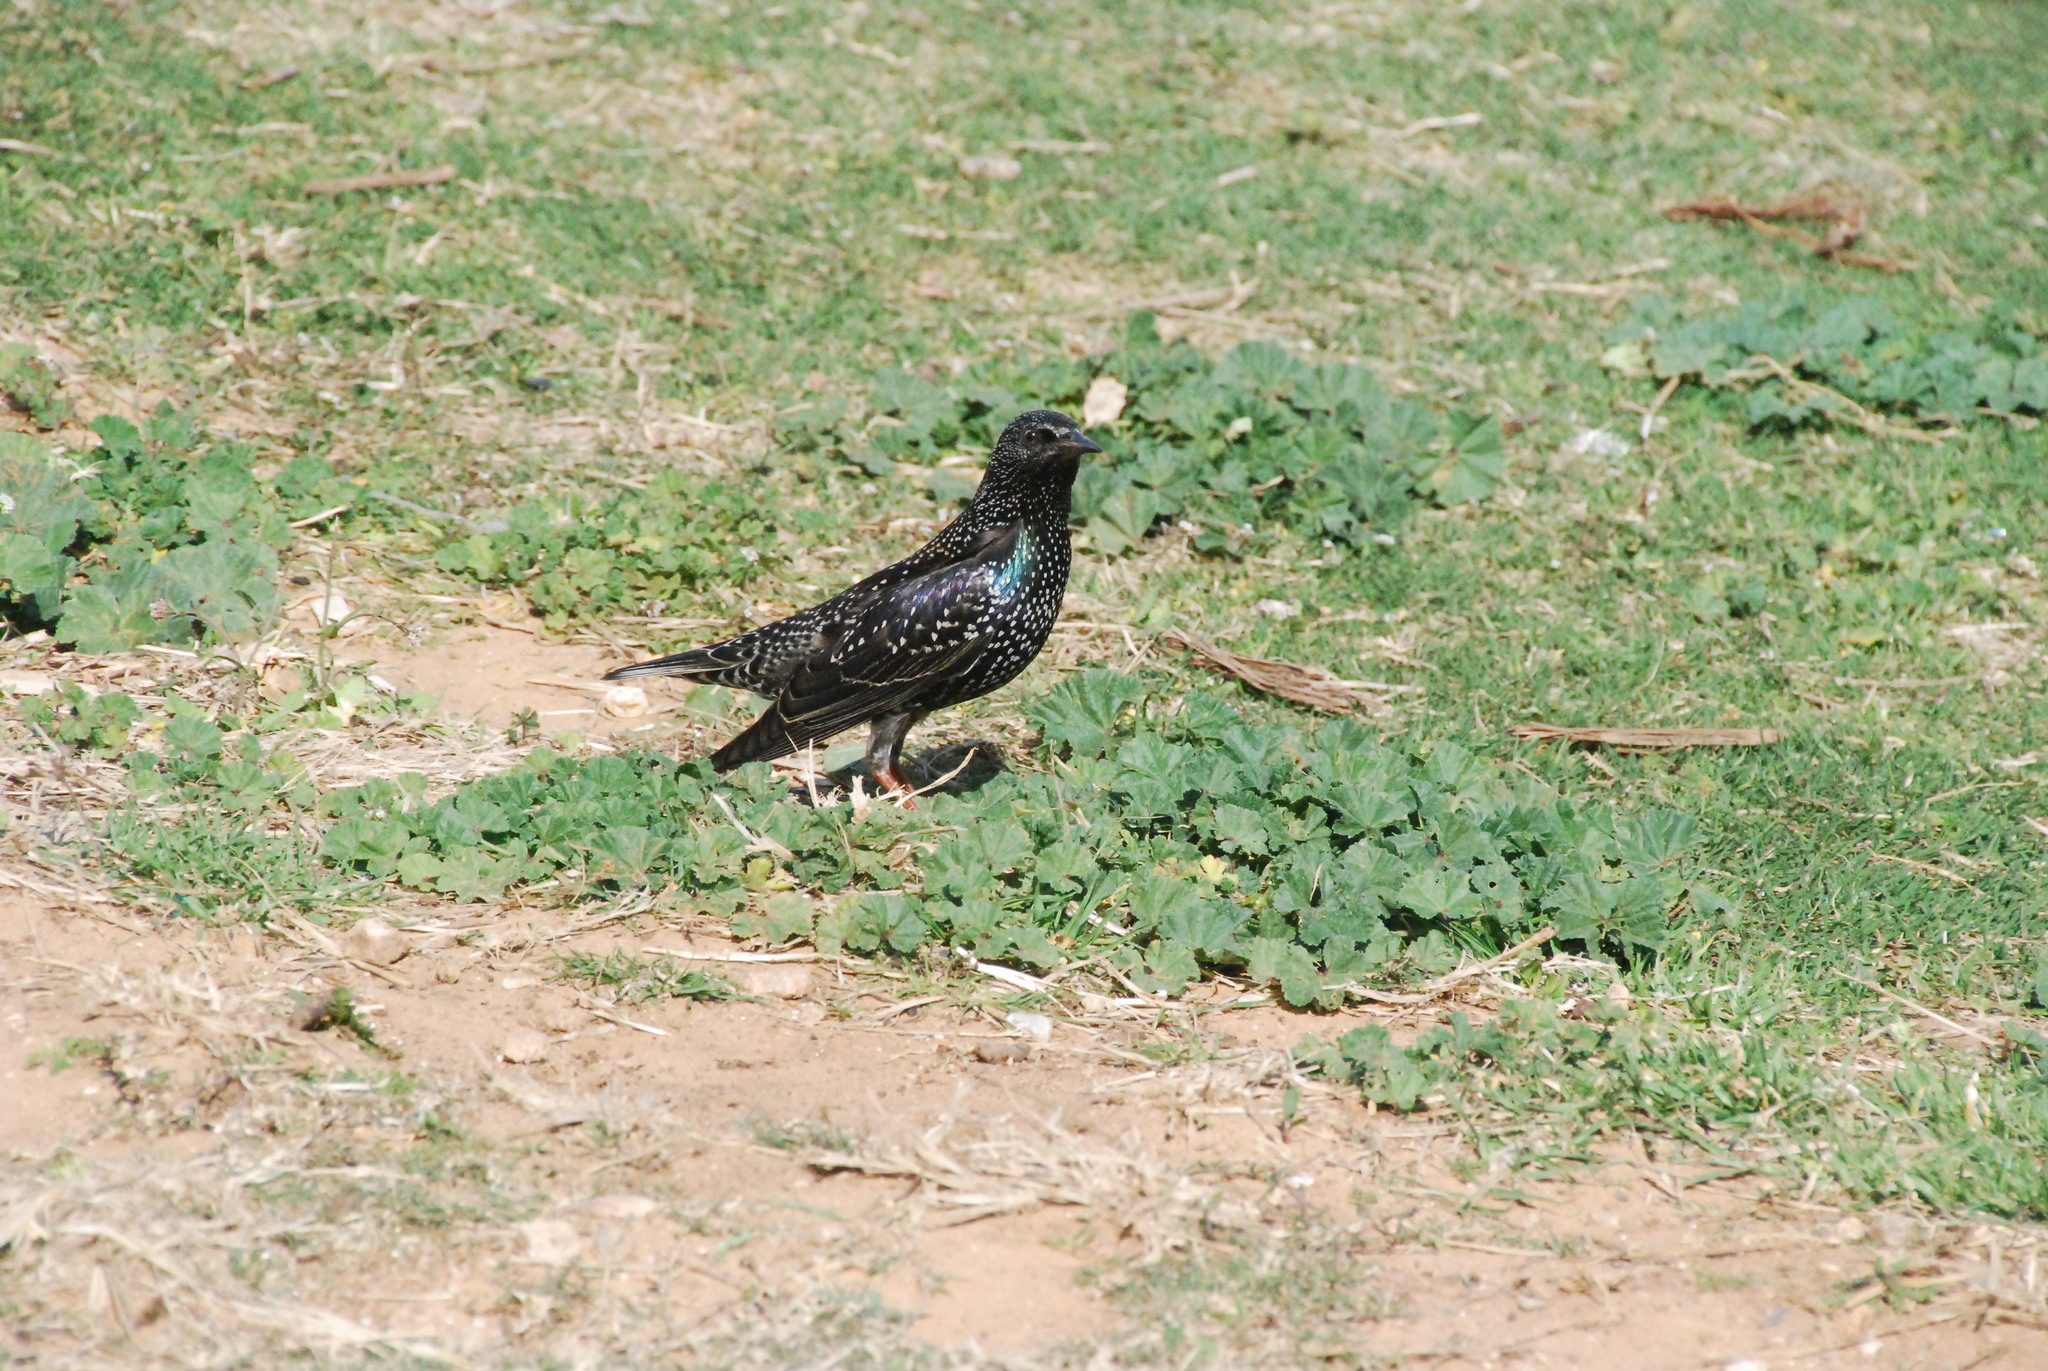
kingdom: Animalia
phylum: Chordata
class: Aves
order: Passeriformes
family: Sturnidae
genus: Sturnus
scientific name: Sturnus vulgaris
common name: Common starling
